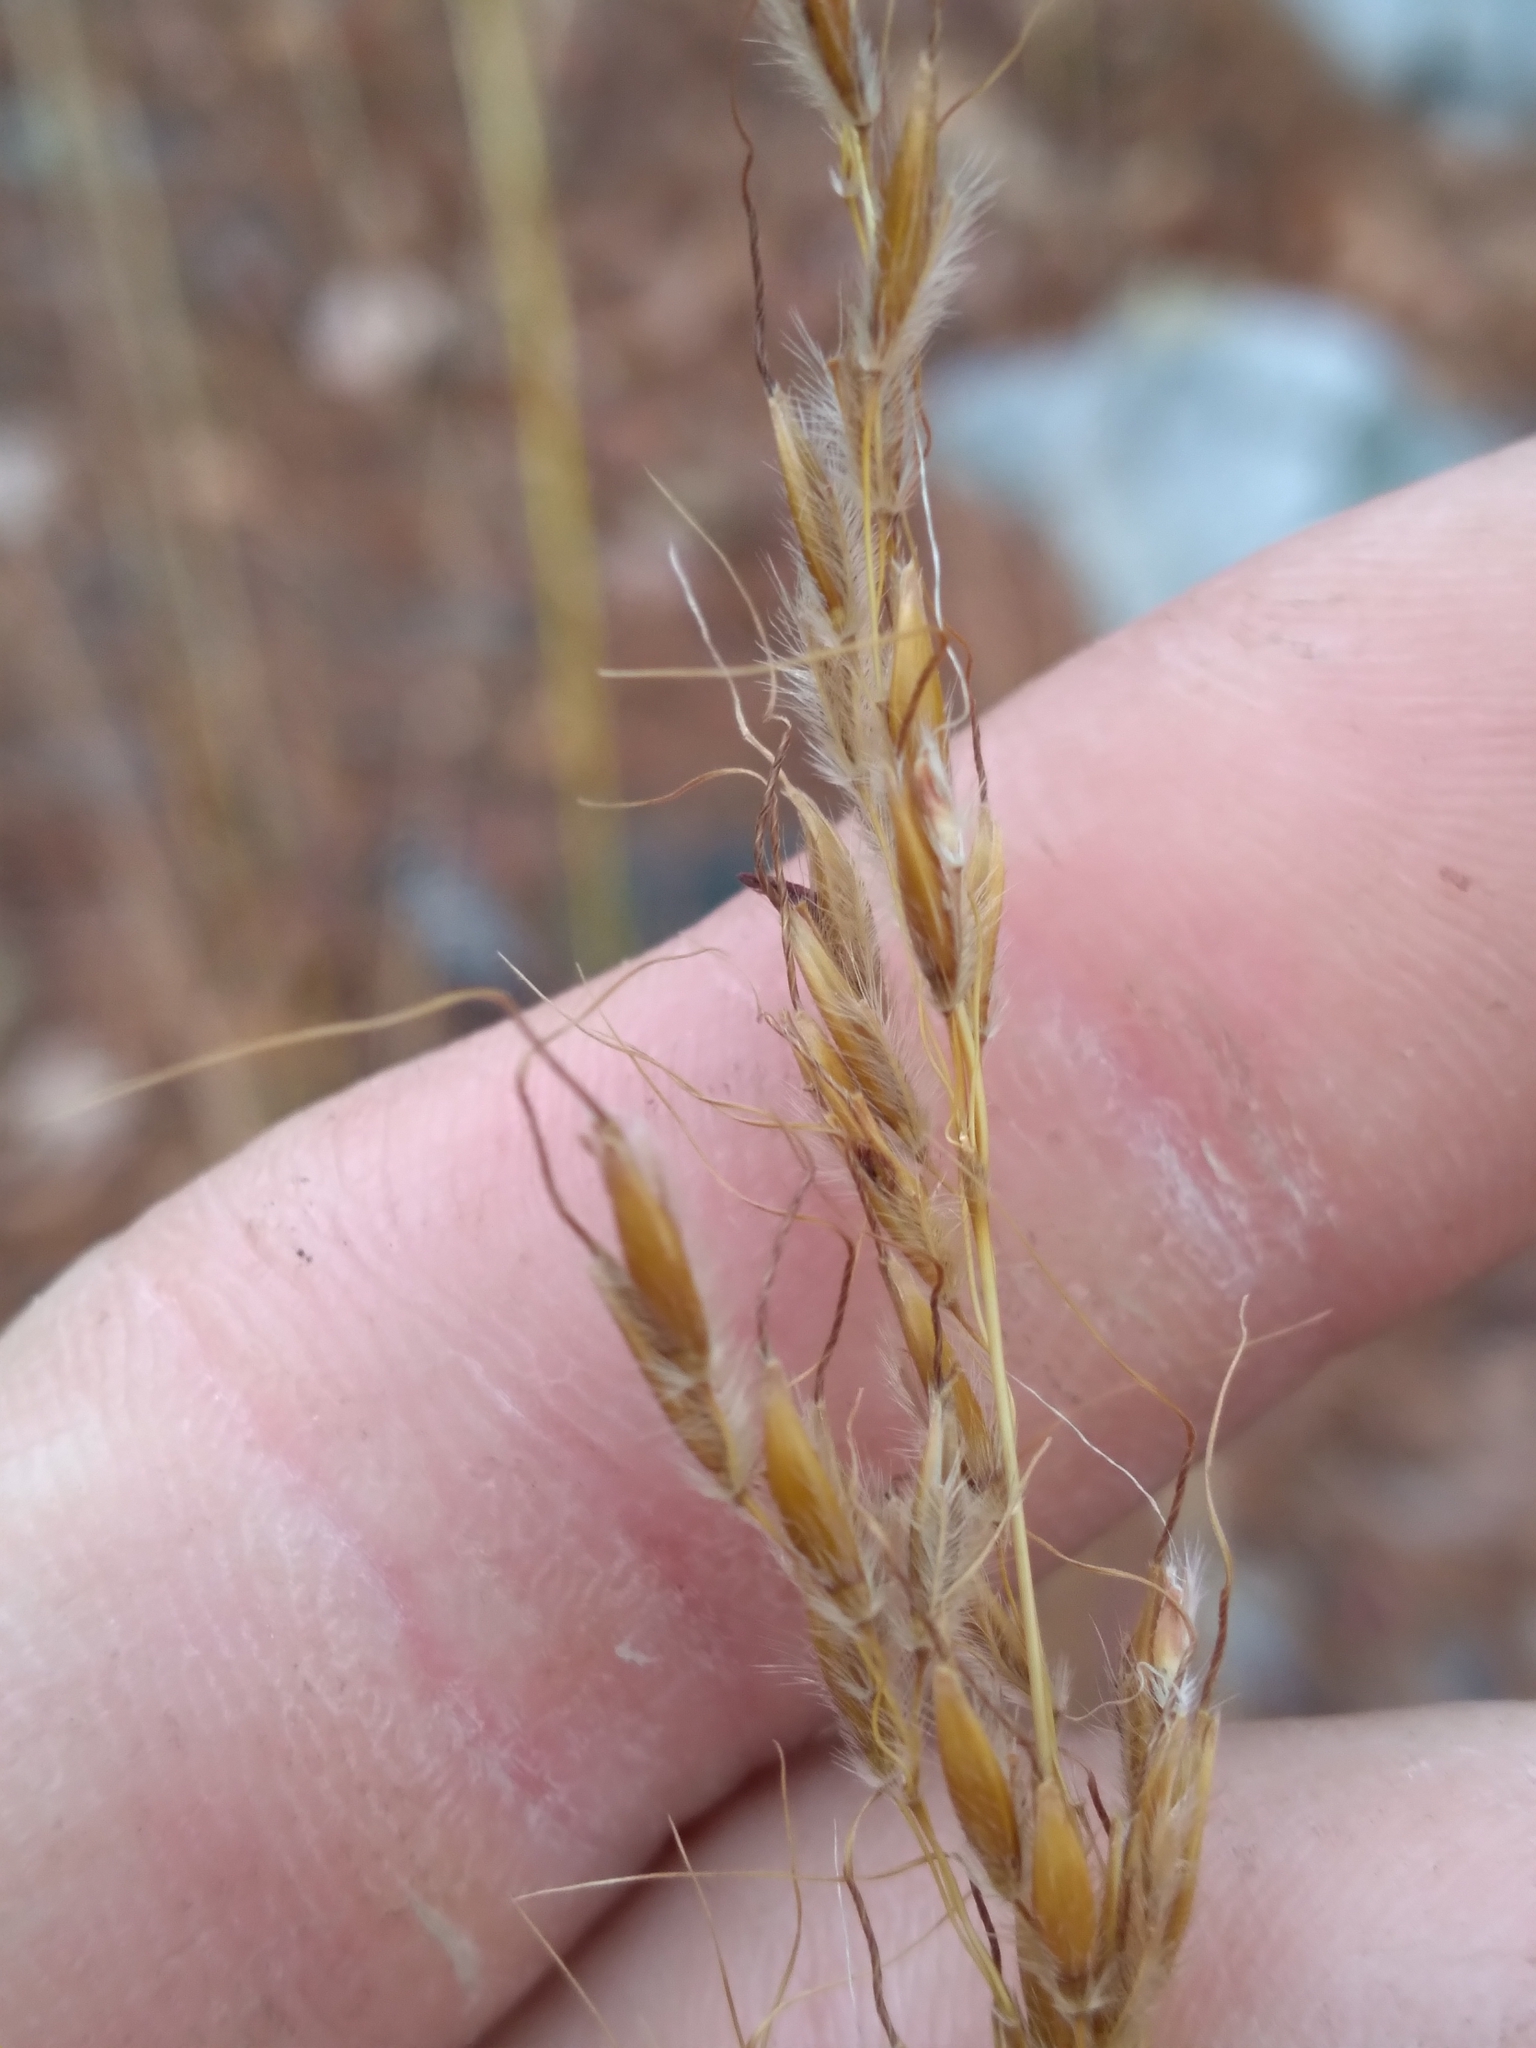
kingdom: Plantae
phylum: Tracheophyta
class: Liliopsida
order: Poales
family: Poaceae
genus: Sorghastrum
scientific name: Sorghastrum nutans
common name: Indian grass
